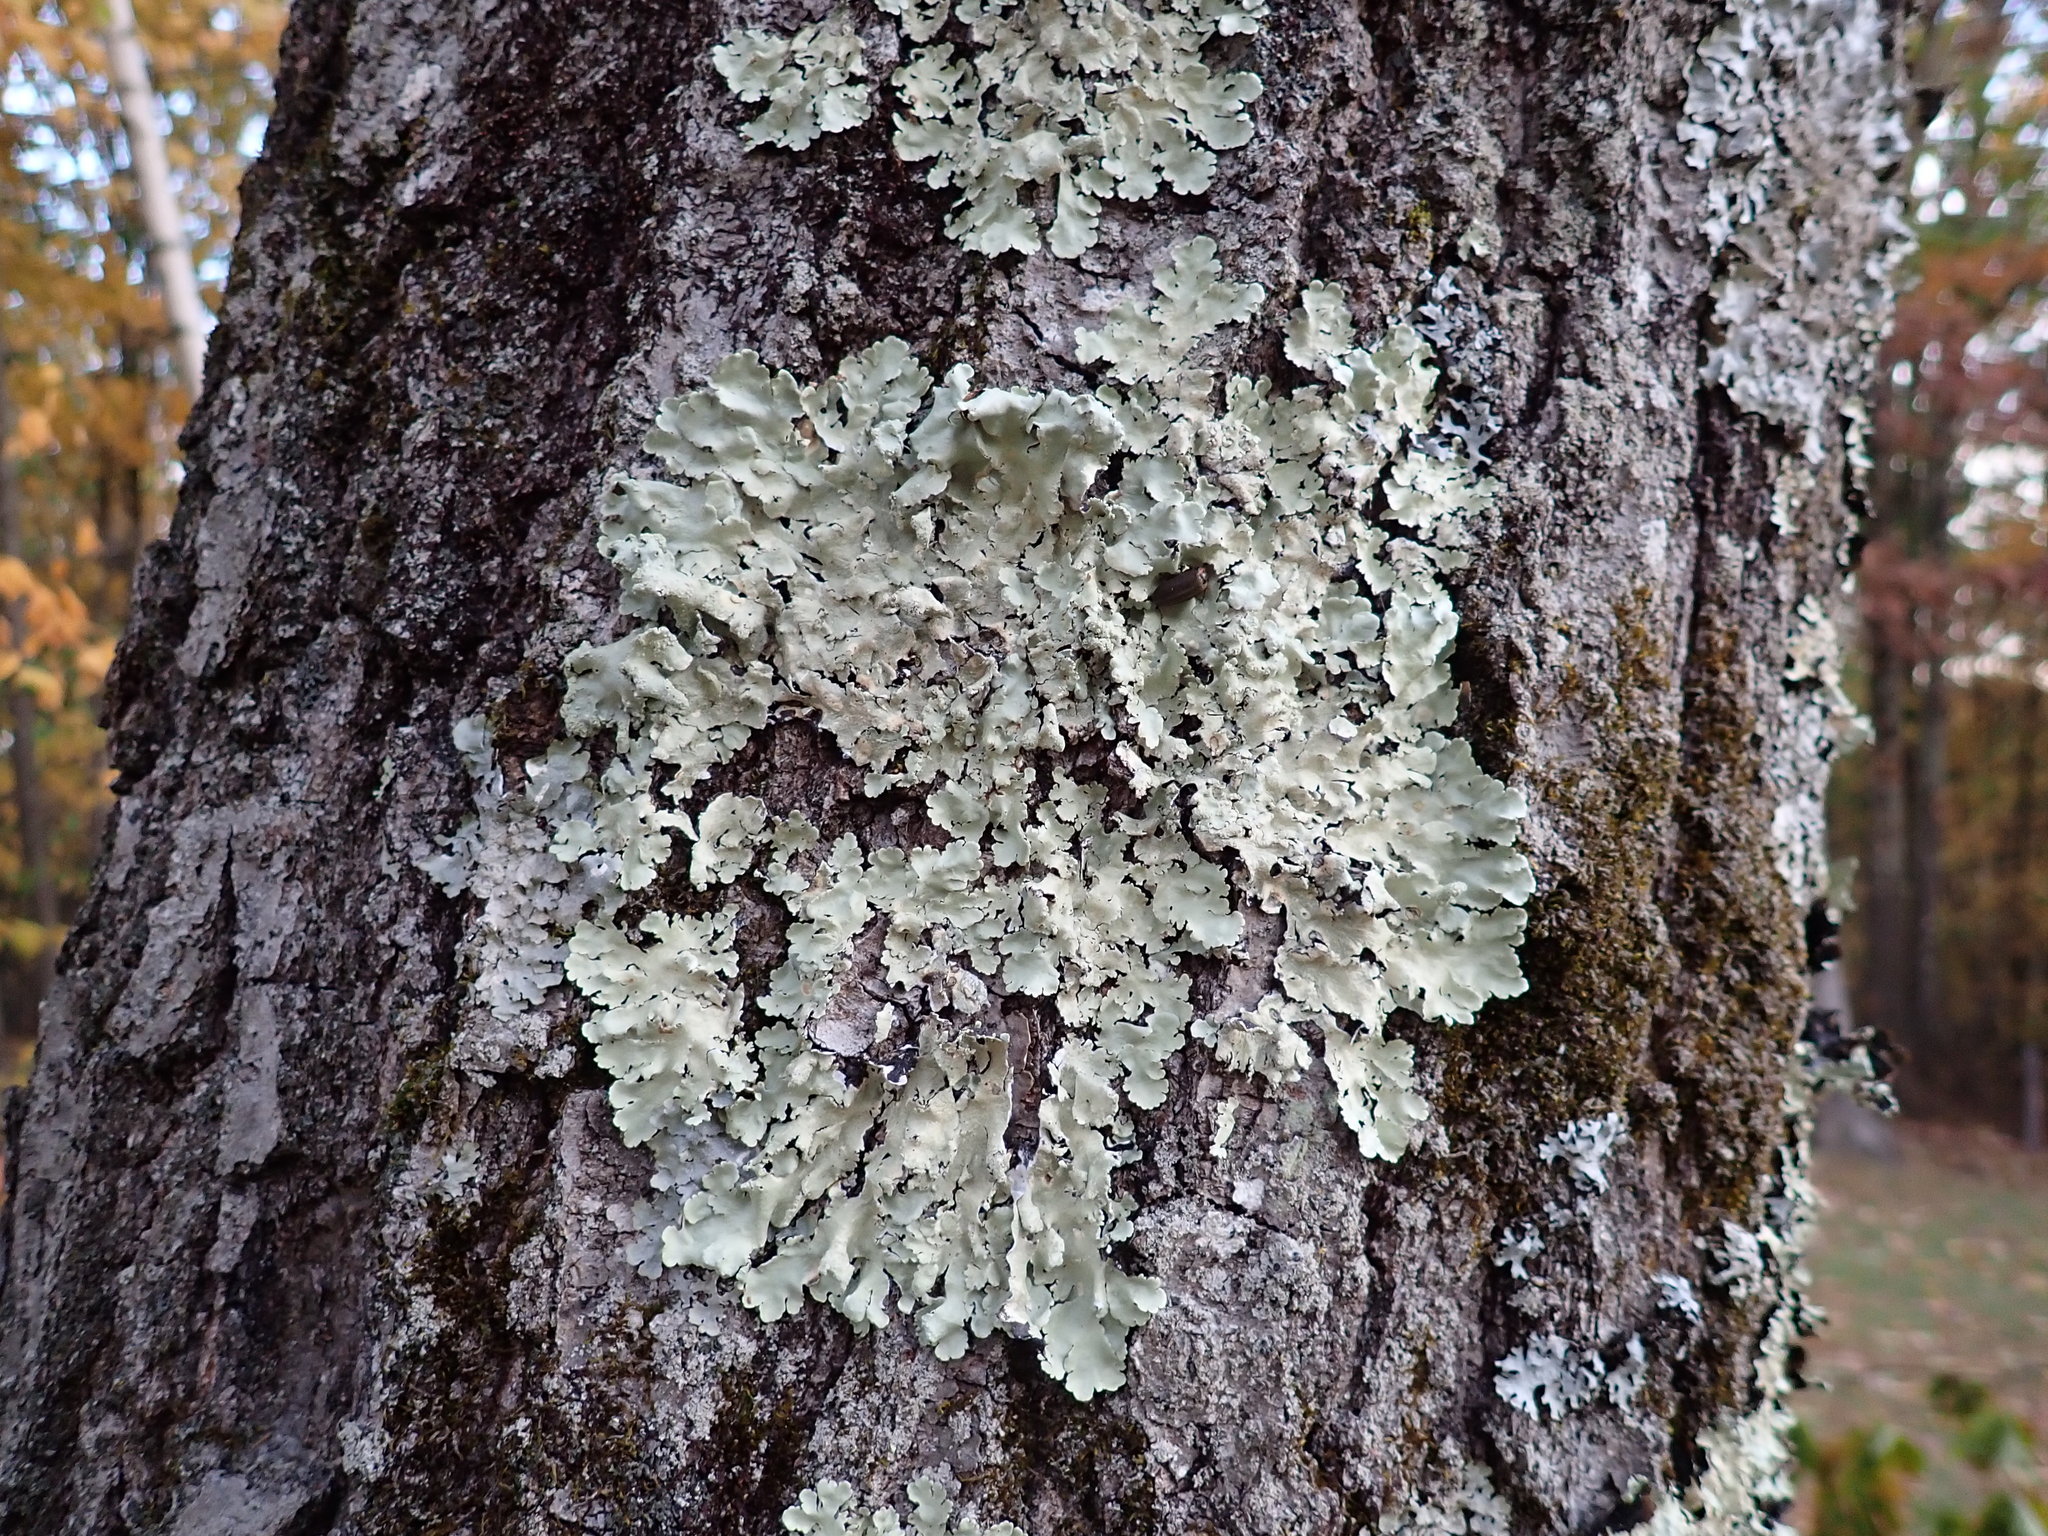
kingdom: Fungi
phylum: Ascomycota
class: Lecanoromycetes
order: Lecanorales
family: Parmeliaceae
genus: Flavoparmelia
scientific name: Flavoparmelia caperata
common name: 40-mile per hour lichen
